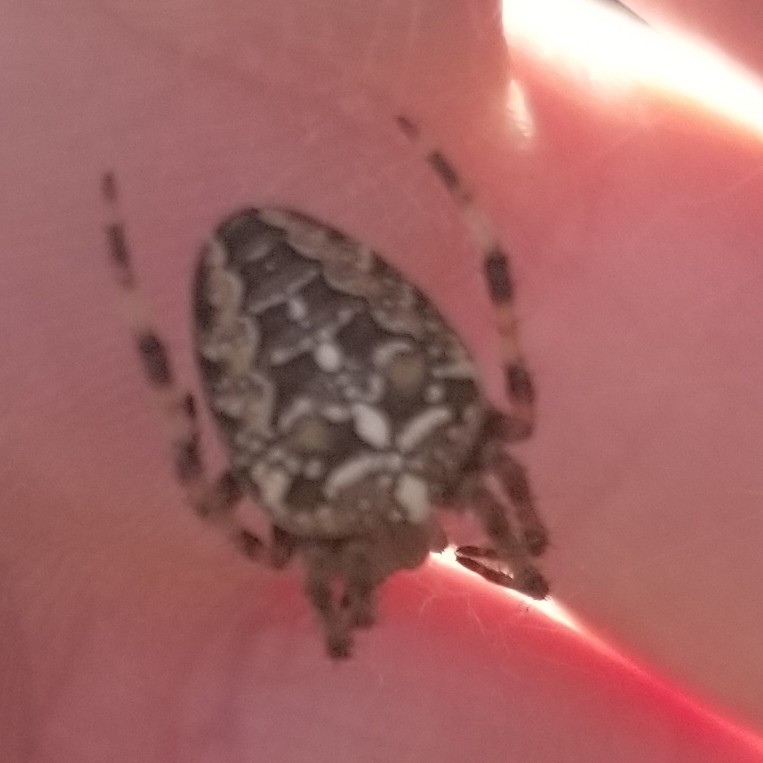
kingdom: Animalia
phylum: Arthropoda
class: Arachnida
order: Araneae
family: Araneidae
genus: Araneus
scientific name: Araneus diadematus
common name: Cross orbweaver
